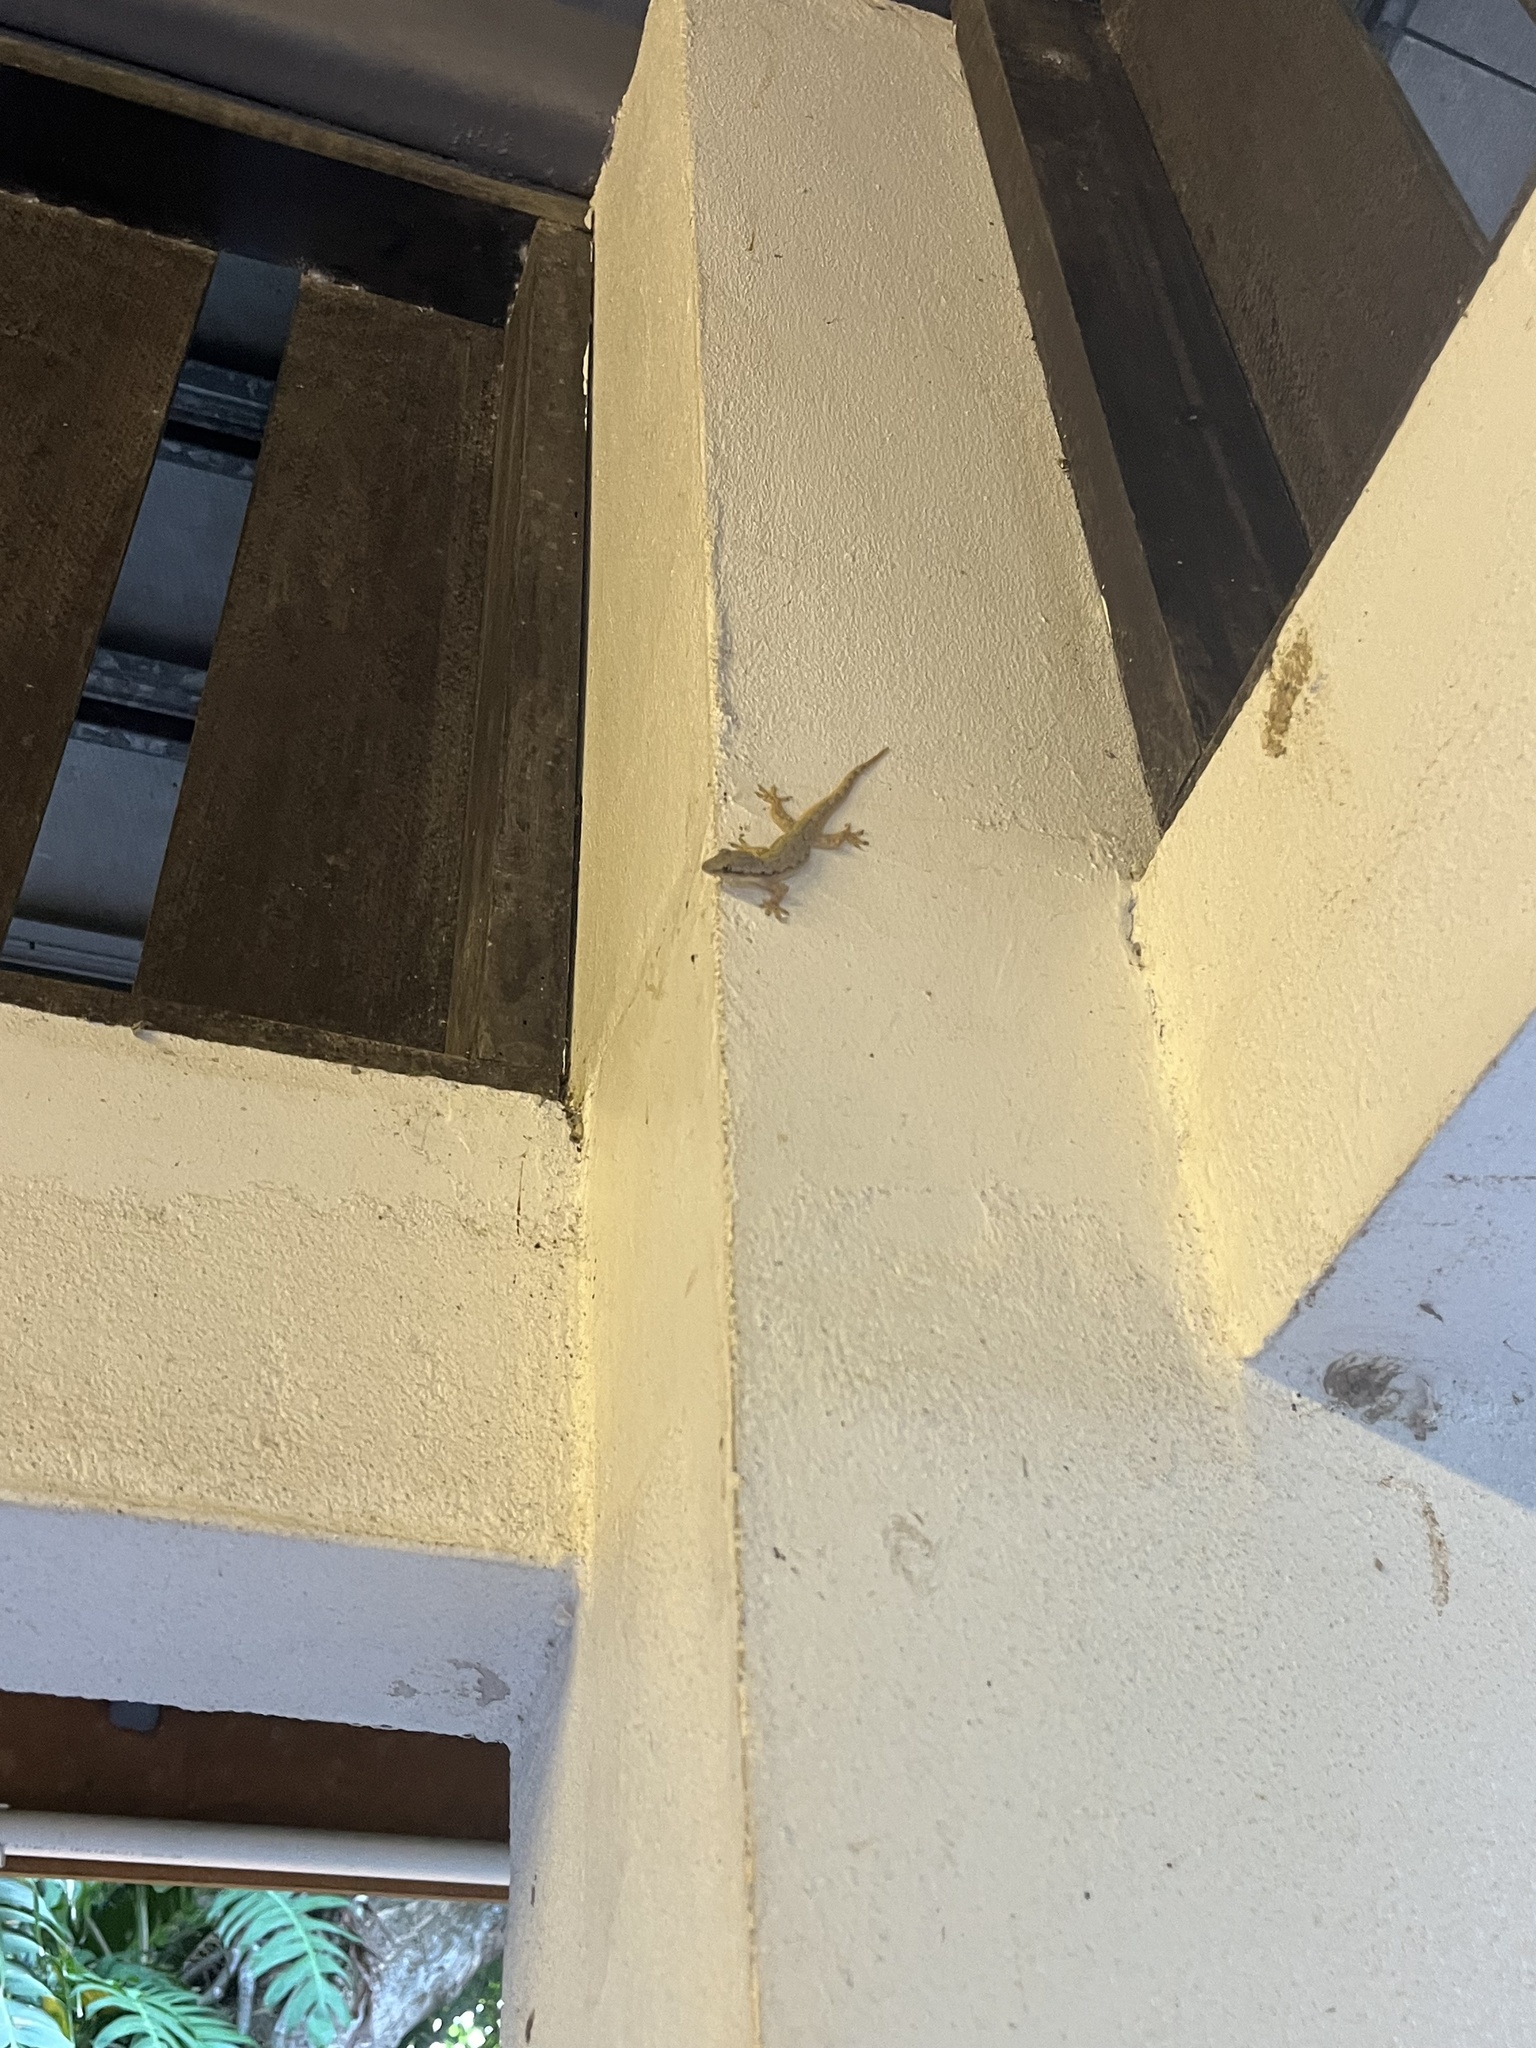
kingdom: Animalia
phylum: Chordata
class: Squamata
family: Gekkonidae
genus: Hemidactylus
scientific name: Hemidactylus platyurus
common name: Flat-tailed house gecko
